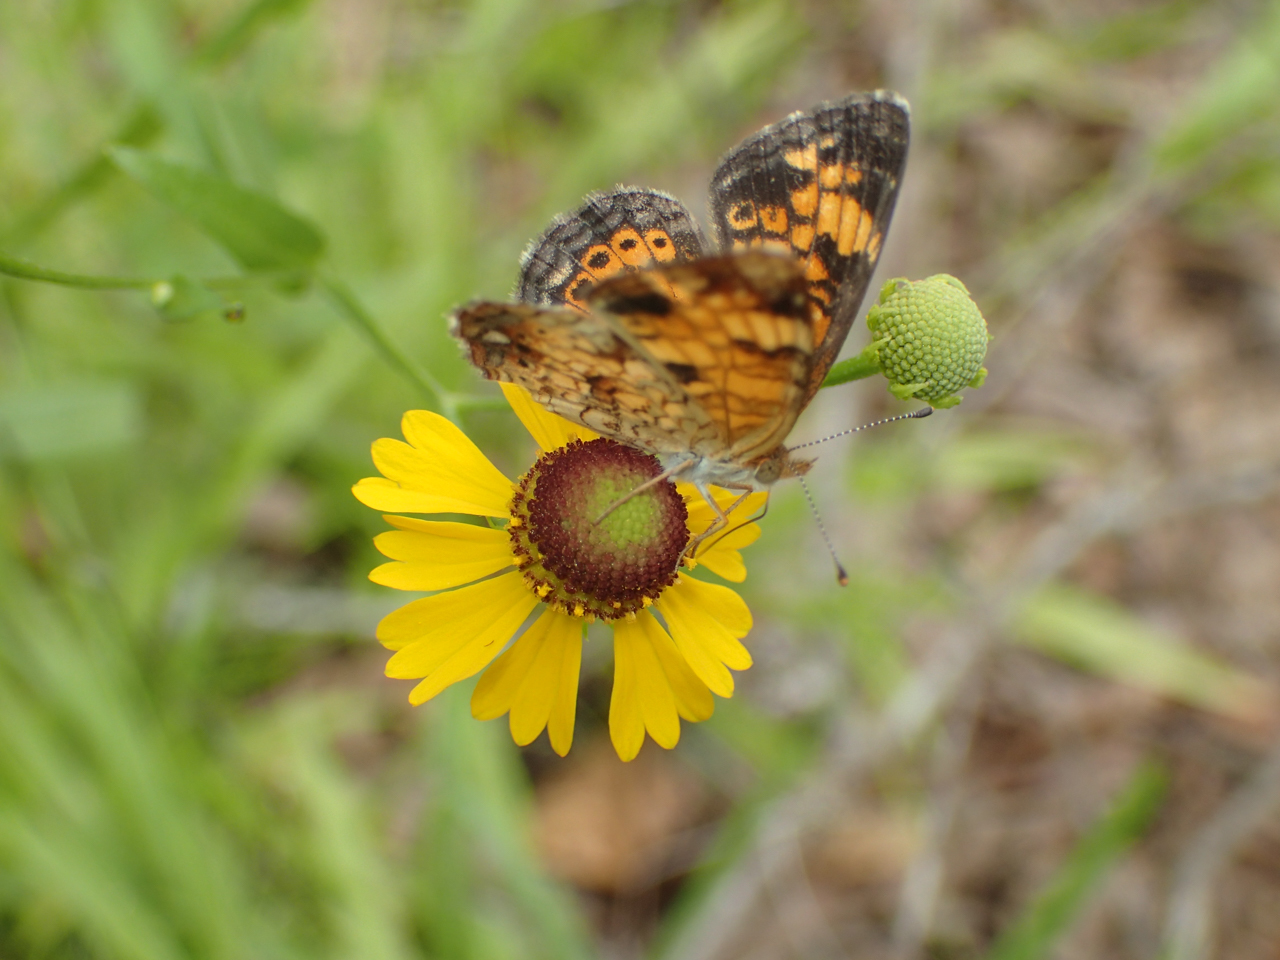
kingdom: Animalia
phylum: Arthropoda
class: Insecta
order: Lepidoptera
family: Nymphalidae
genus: Phyciodes
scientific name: Phyciodes tharos
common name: Pearl crescent
